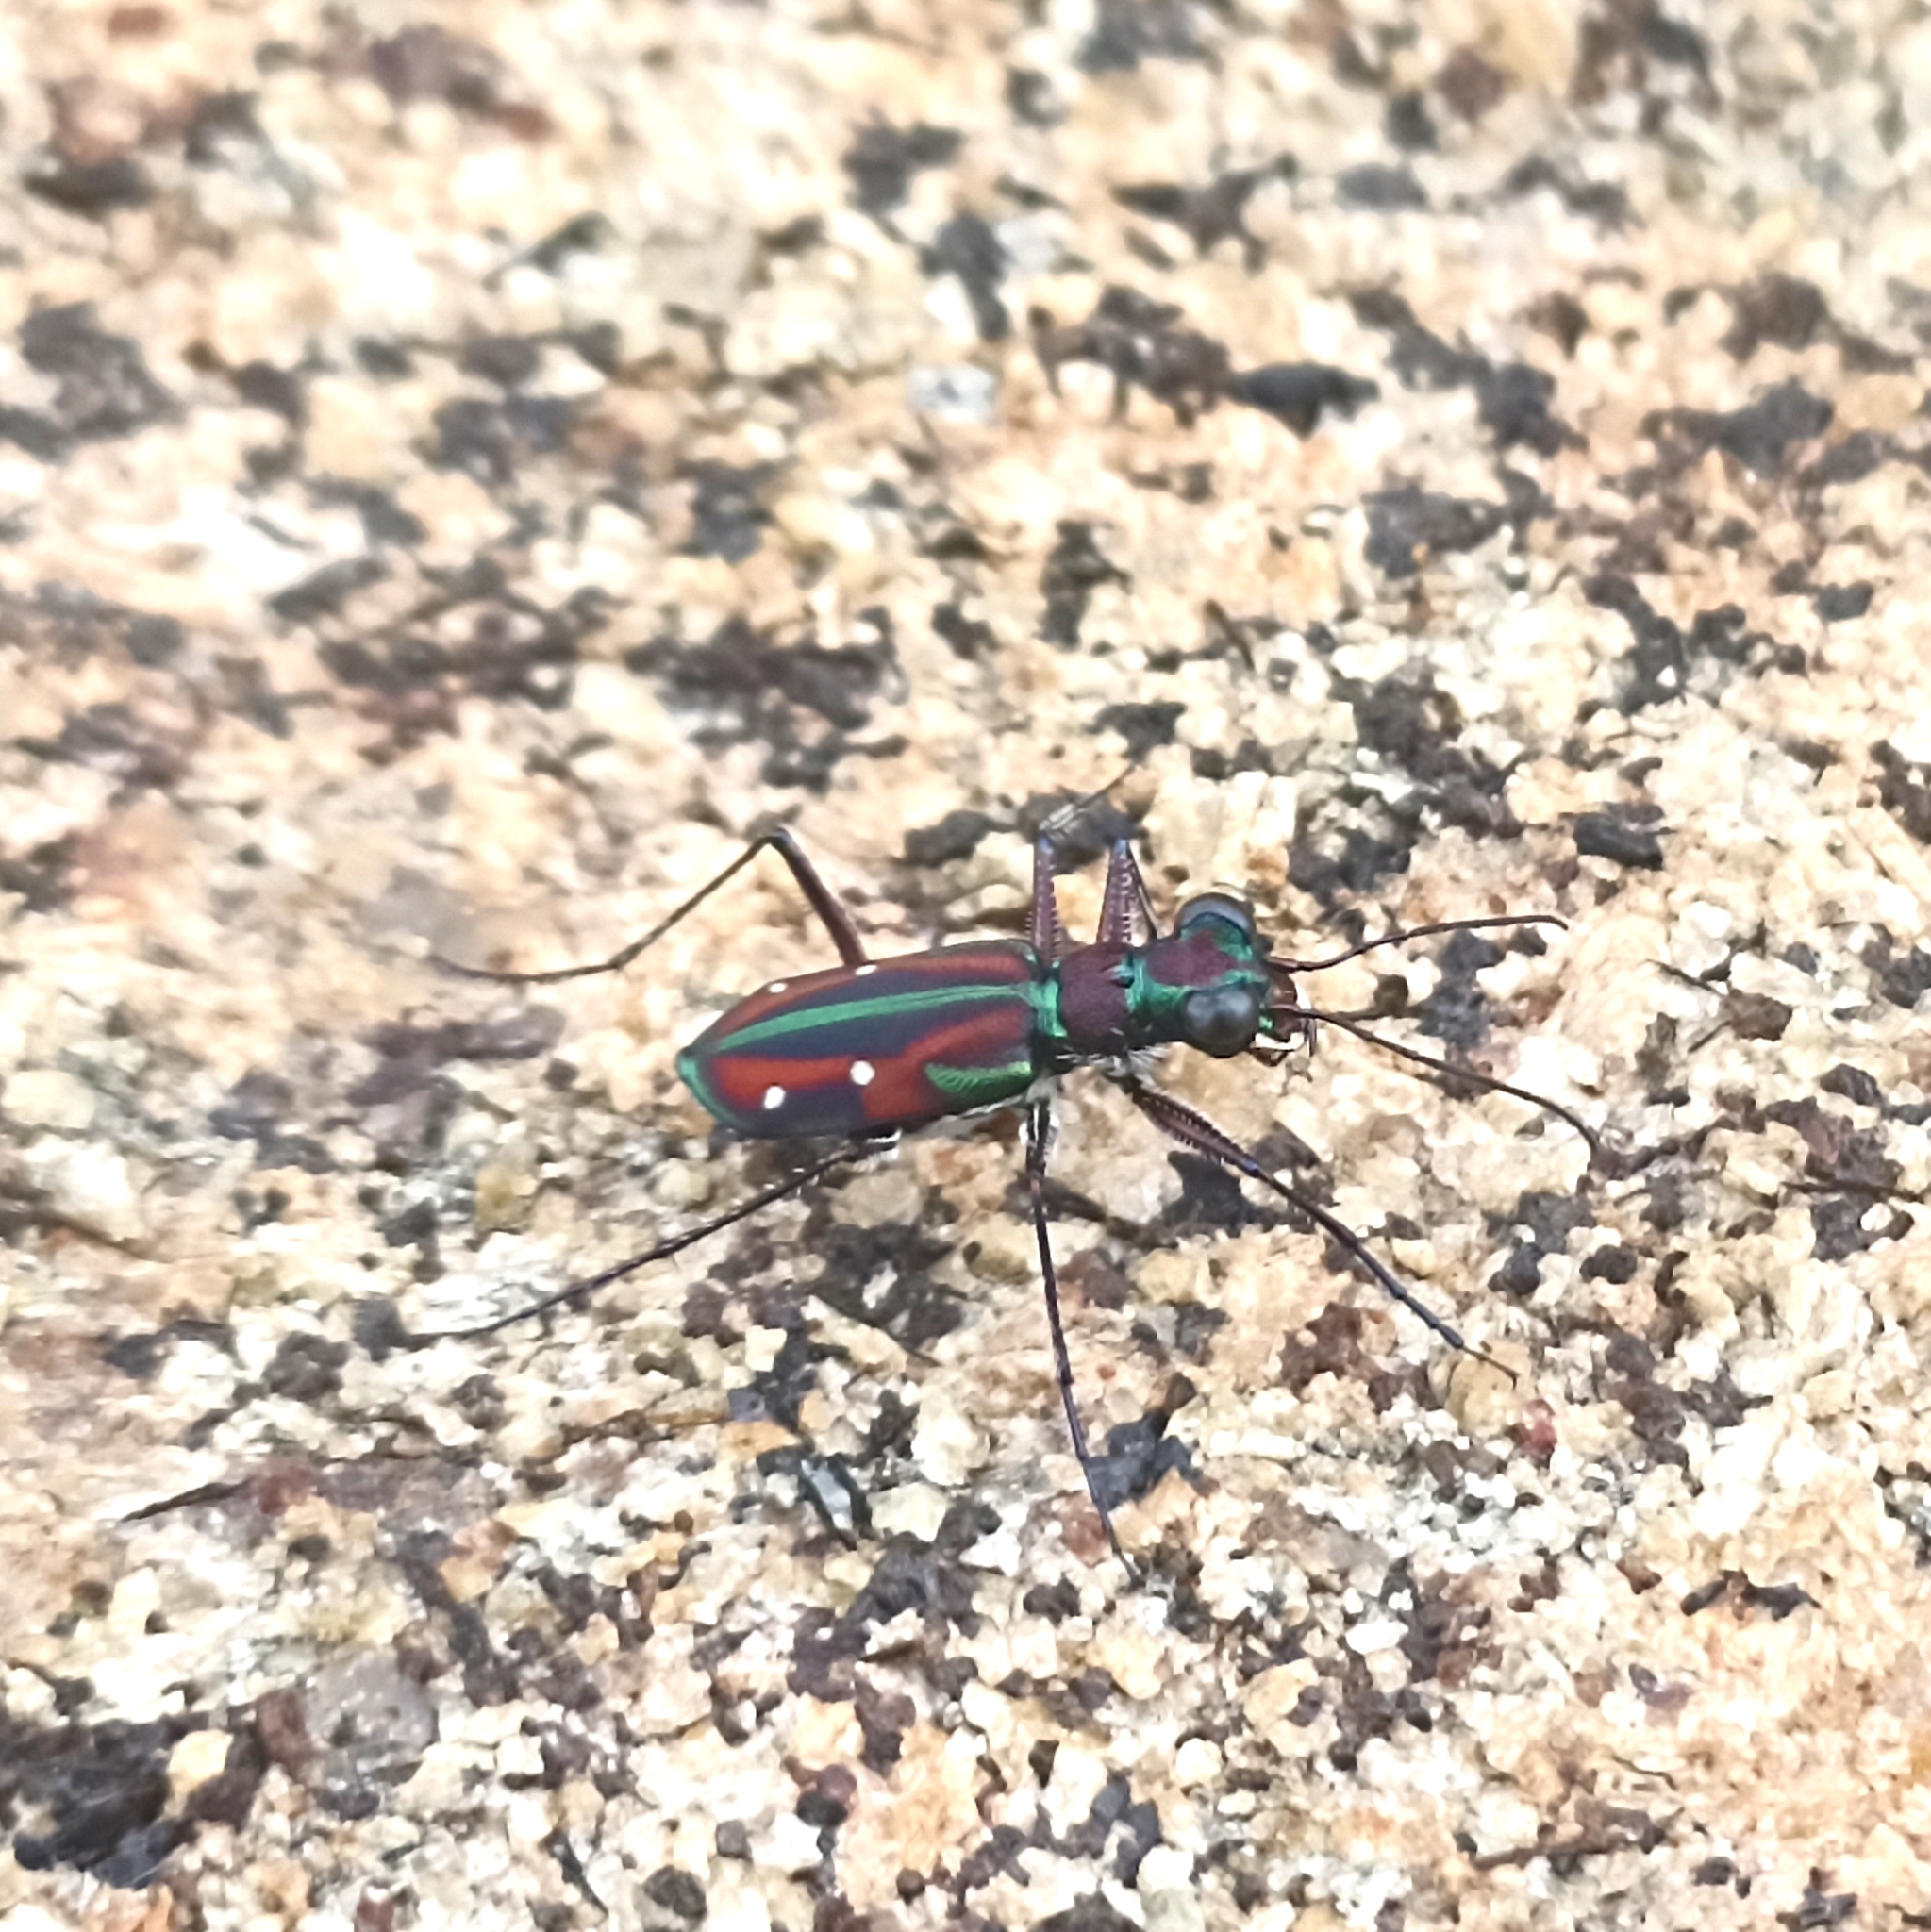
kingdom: Animalia
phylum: Arthropoda
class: Insecta
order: Coleoptera
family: Carabidae
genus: Jansenia
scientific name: Jansenia rugosiceps
